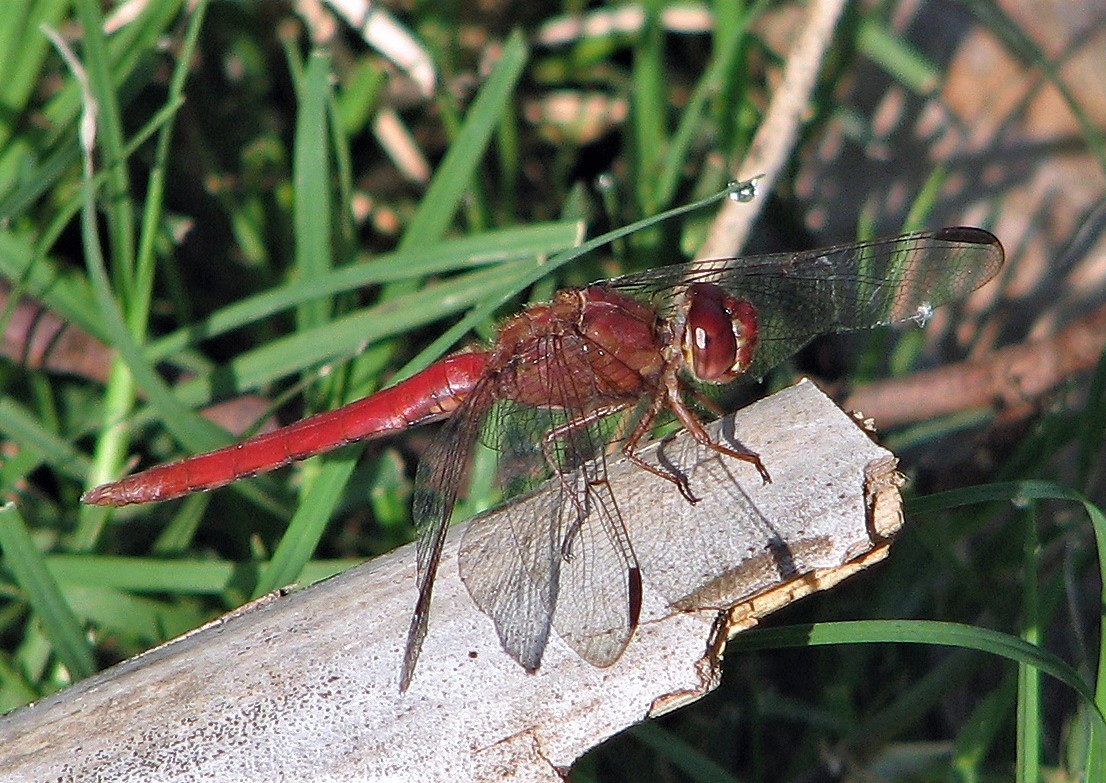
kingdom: Animalia
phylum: Arthropoda
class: Insecta
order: Odonata
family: Libellulidae
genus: Orthemis
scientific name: Orthemis nodiplaga
